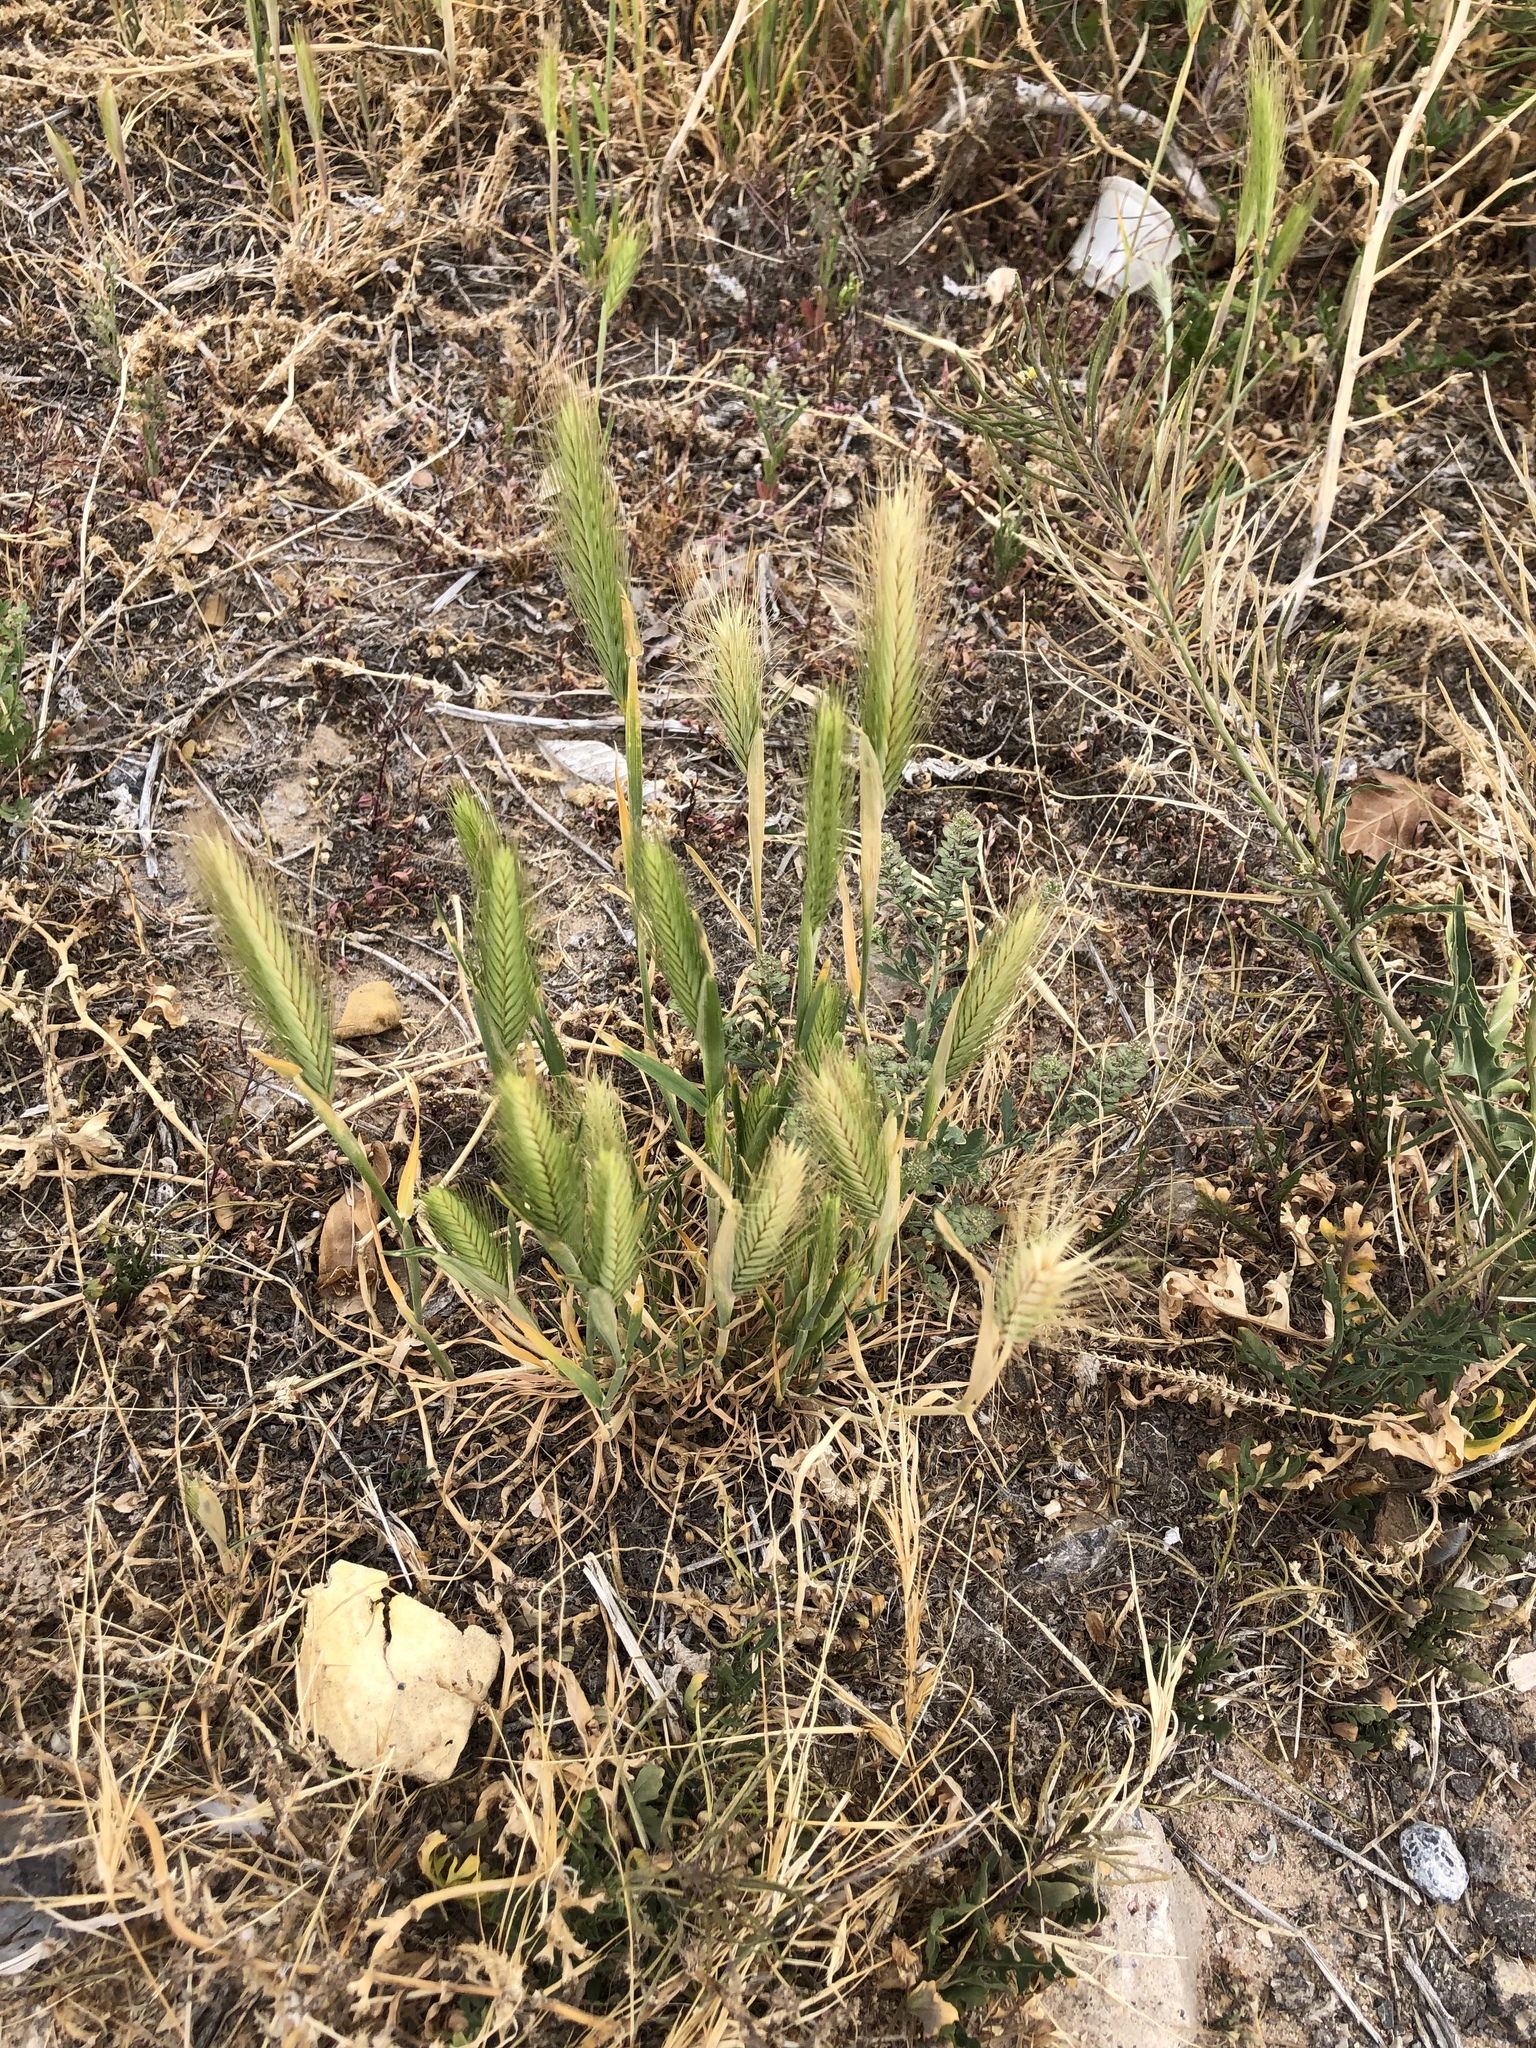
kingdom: Plantae
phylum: Tracheophyta
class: Liliopsida
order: Poales
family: Poaceae
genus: Hordeum
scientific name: Hordeum murinum
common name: Wall barley
